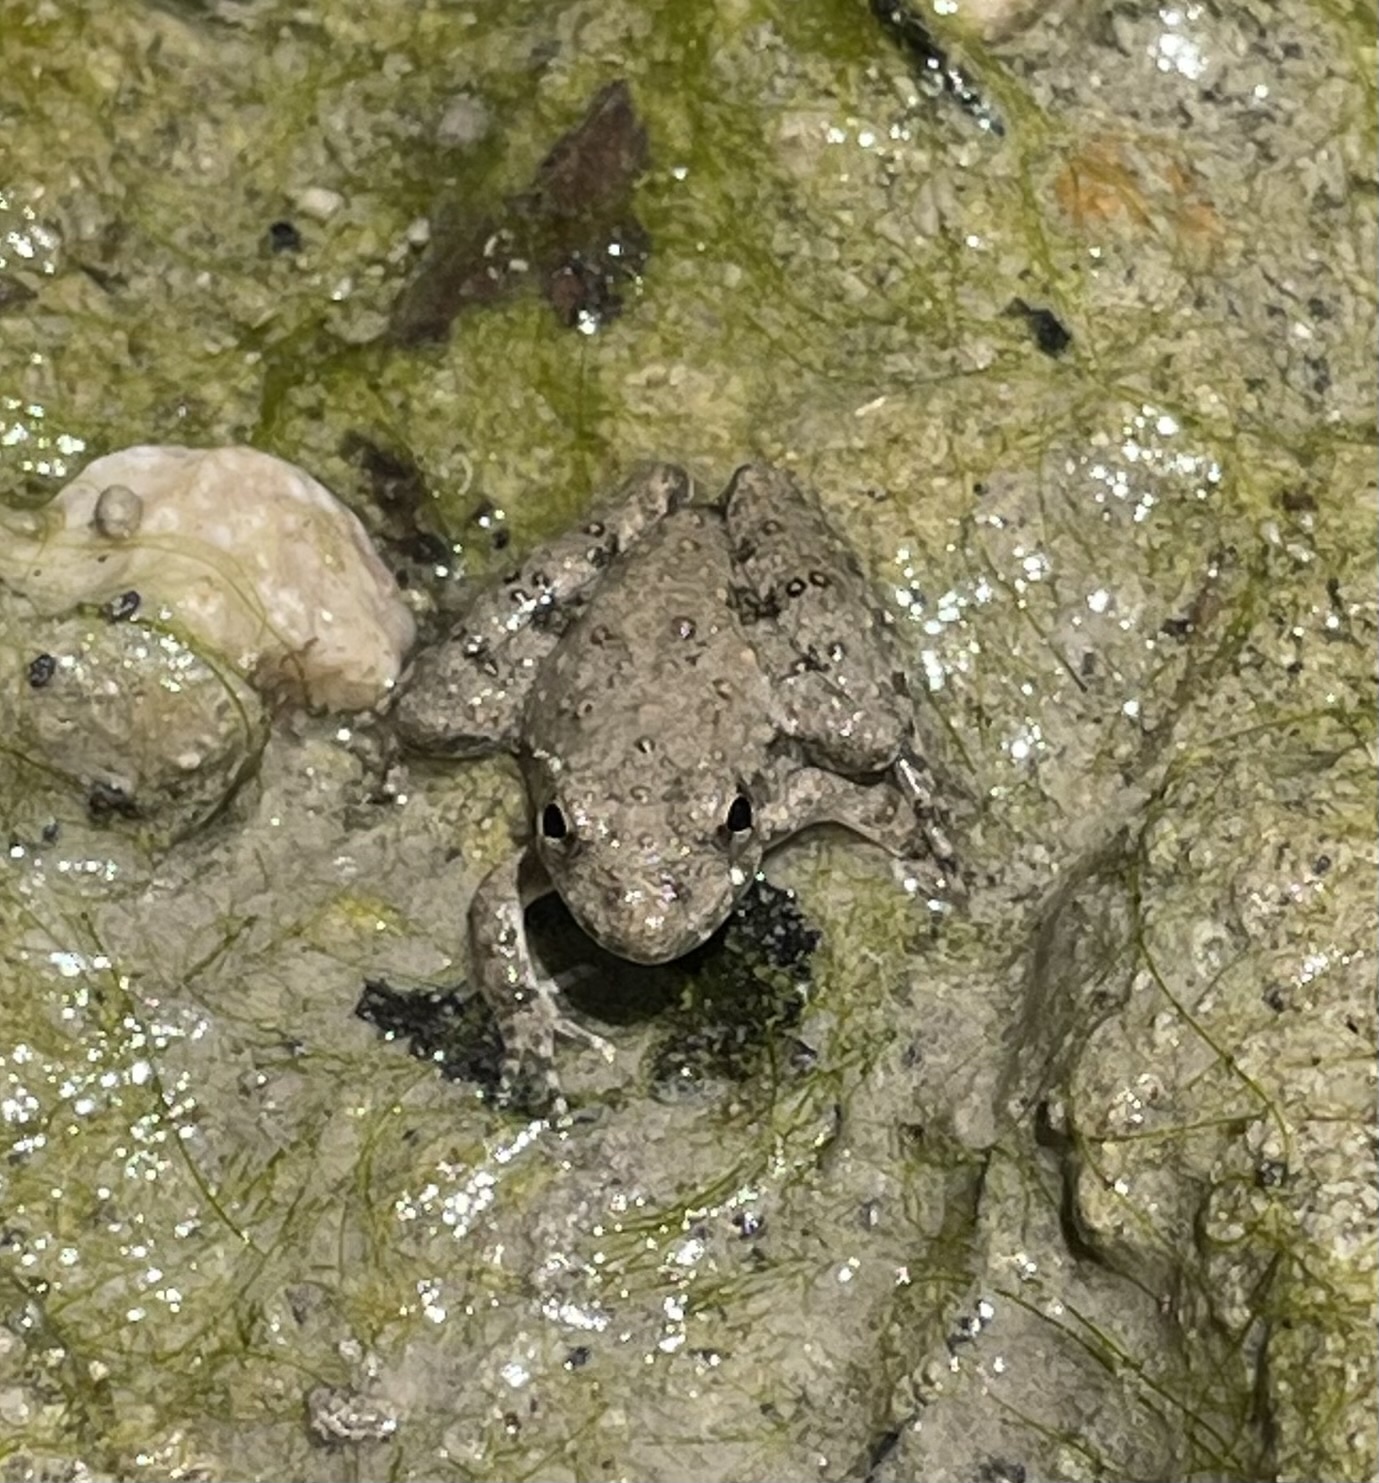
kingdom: Animalia
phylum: Chordata
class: Amphibia
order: Anura
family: Hylidae
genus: Acris
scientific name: Acris blanchardi
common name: Blanchard's cricket frog
